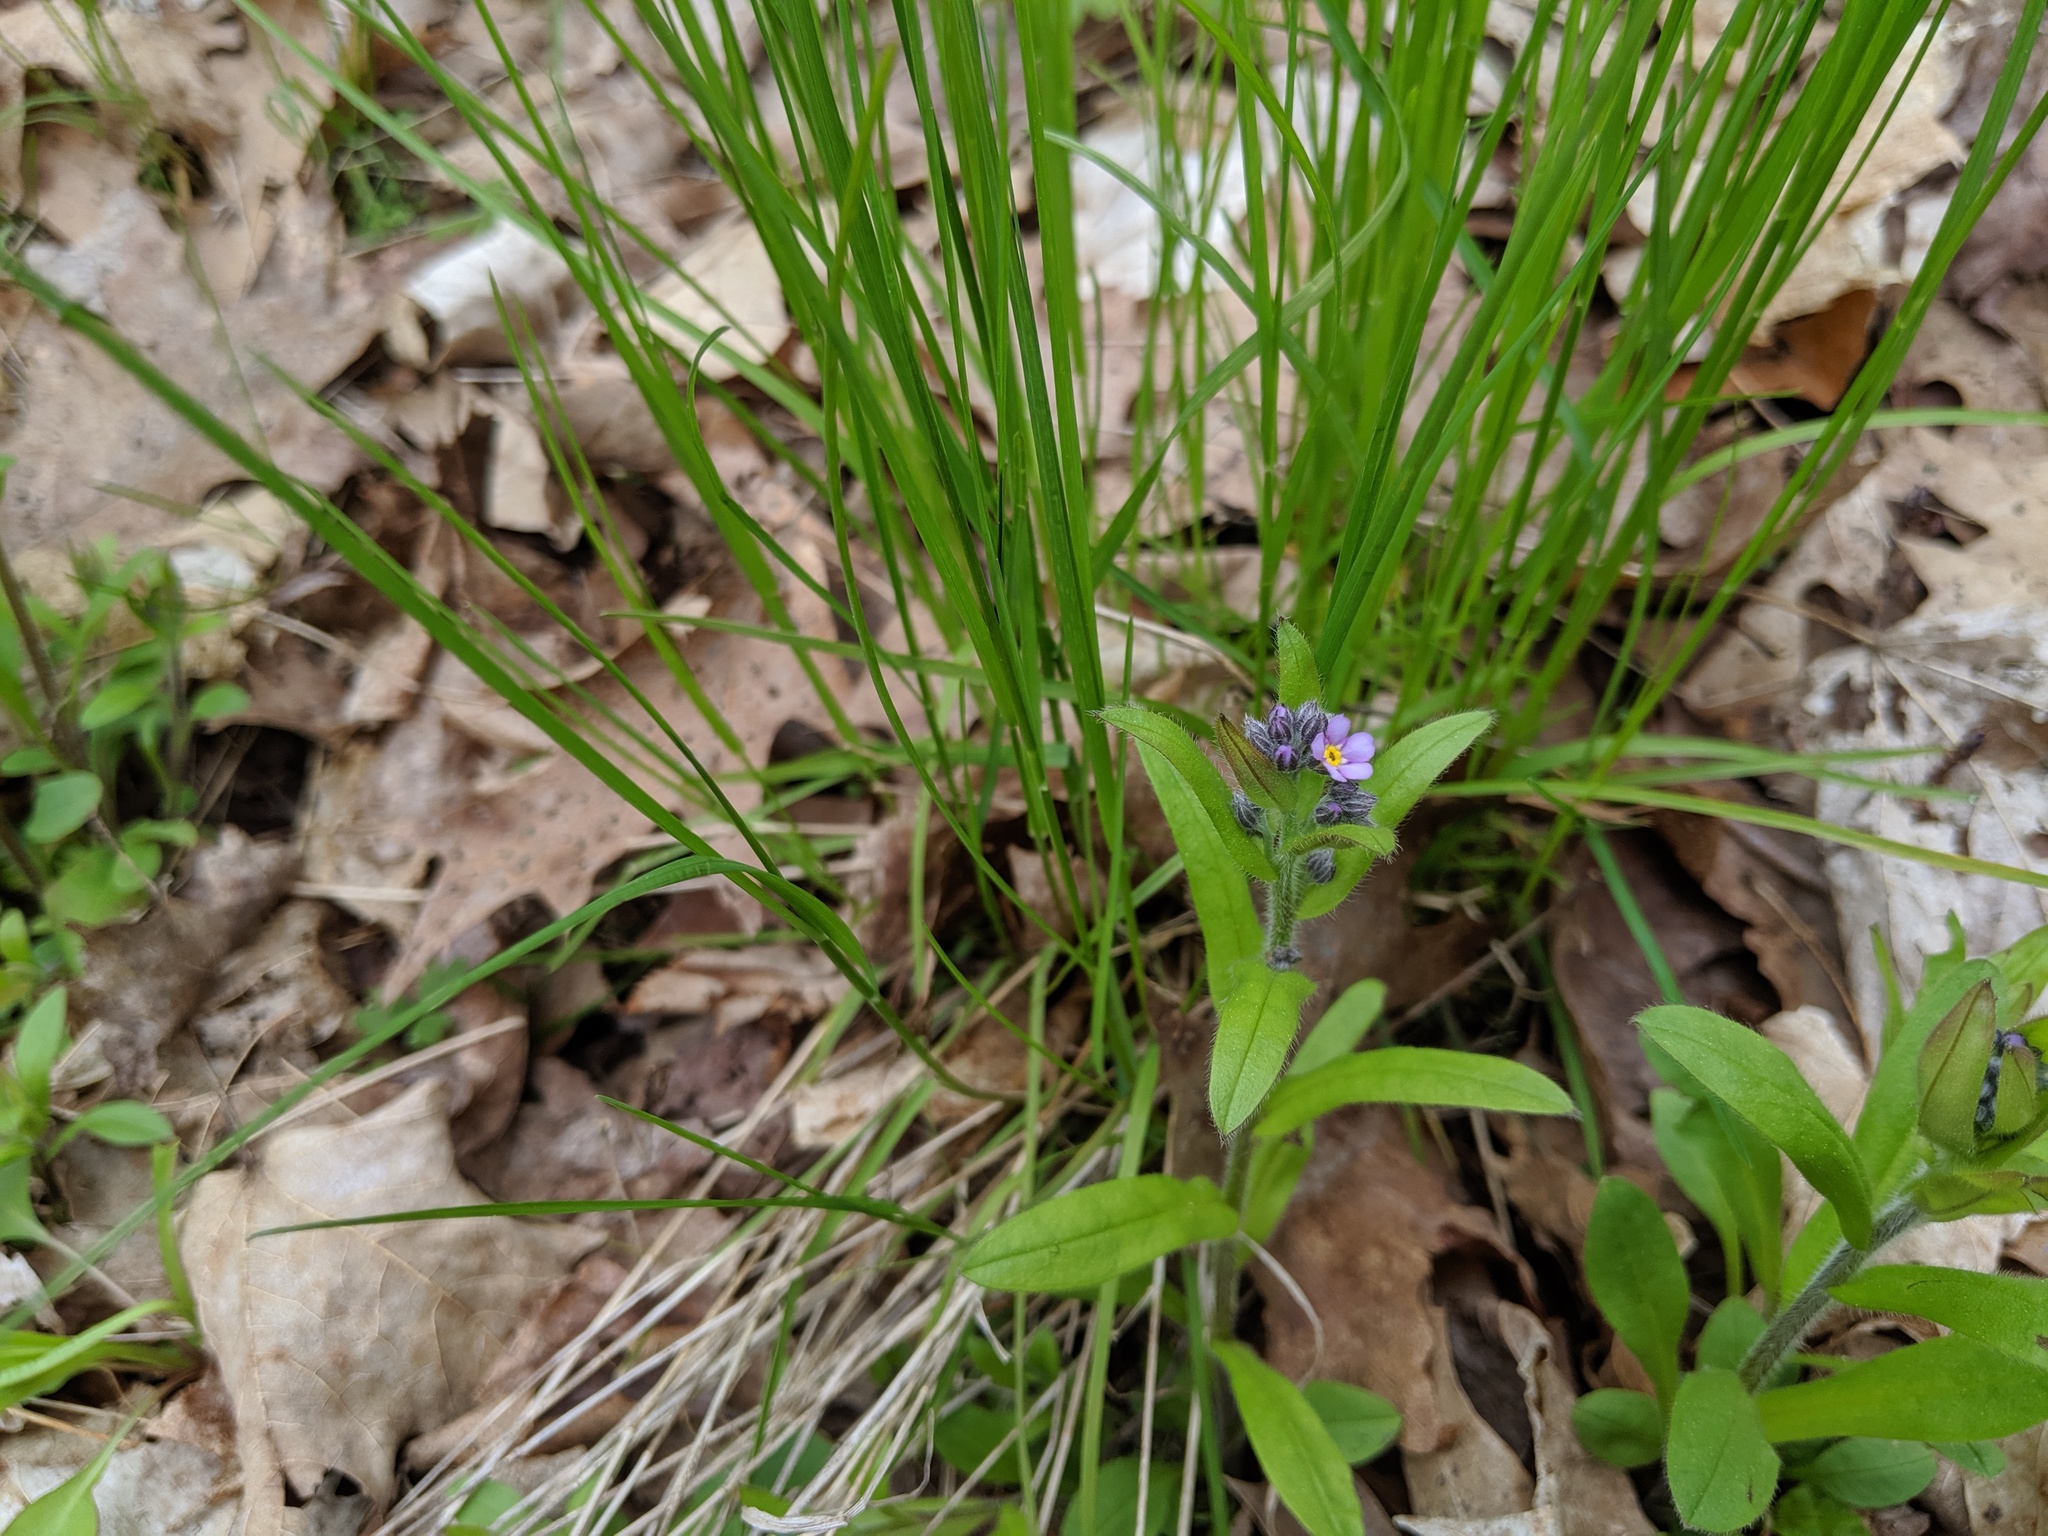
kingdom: Plantae
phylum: Tracheophyta
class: Magnoliopsida
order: Boraginales
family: Boraginaceae
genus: Myosotis
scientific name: Myosotis sylvatica
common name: Wood forget-me-not
